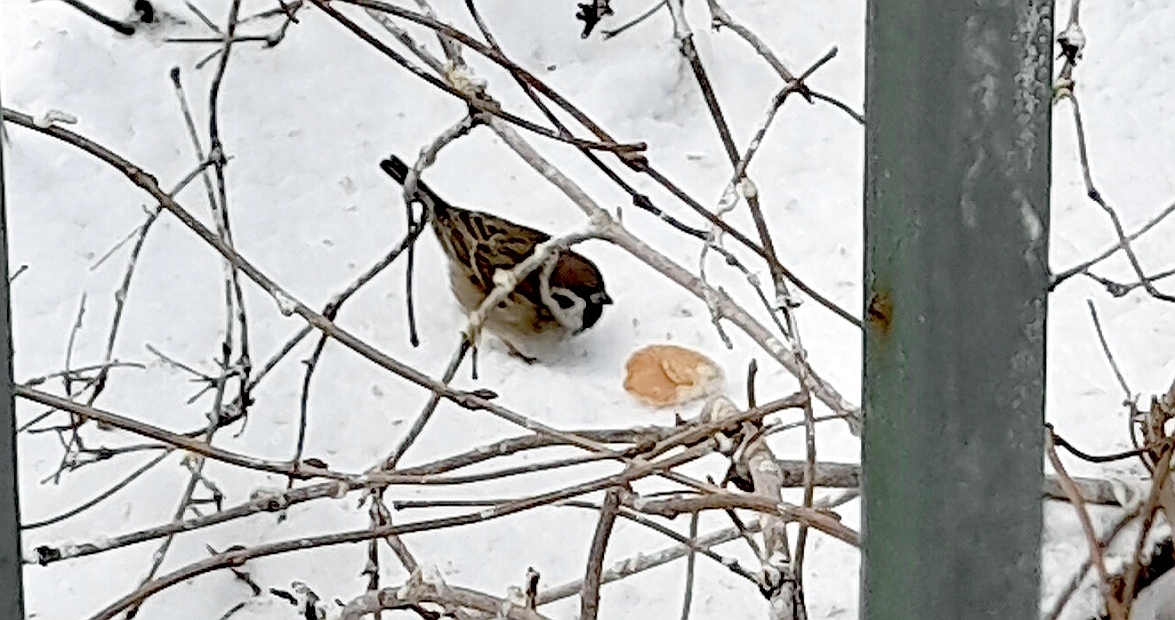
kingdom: Animalia
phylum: Chordata
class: Aves
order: Passeriformes
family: Passeridae
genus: Passer
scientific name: Passer montanus
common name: Eurasian tree sparrow
